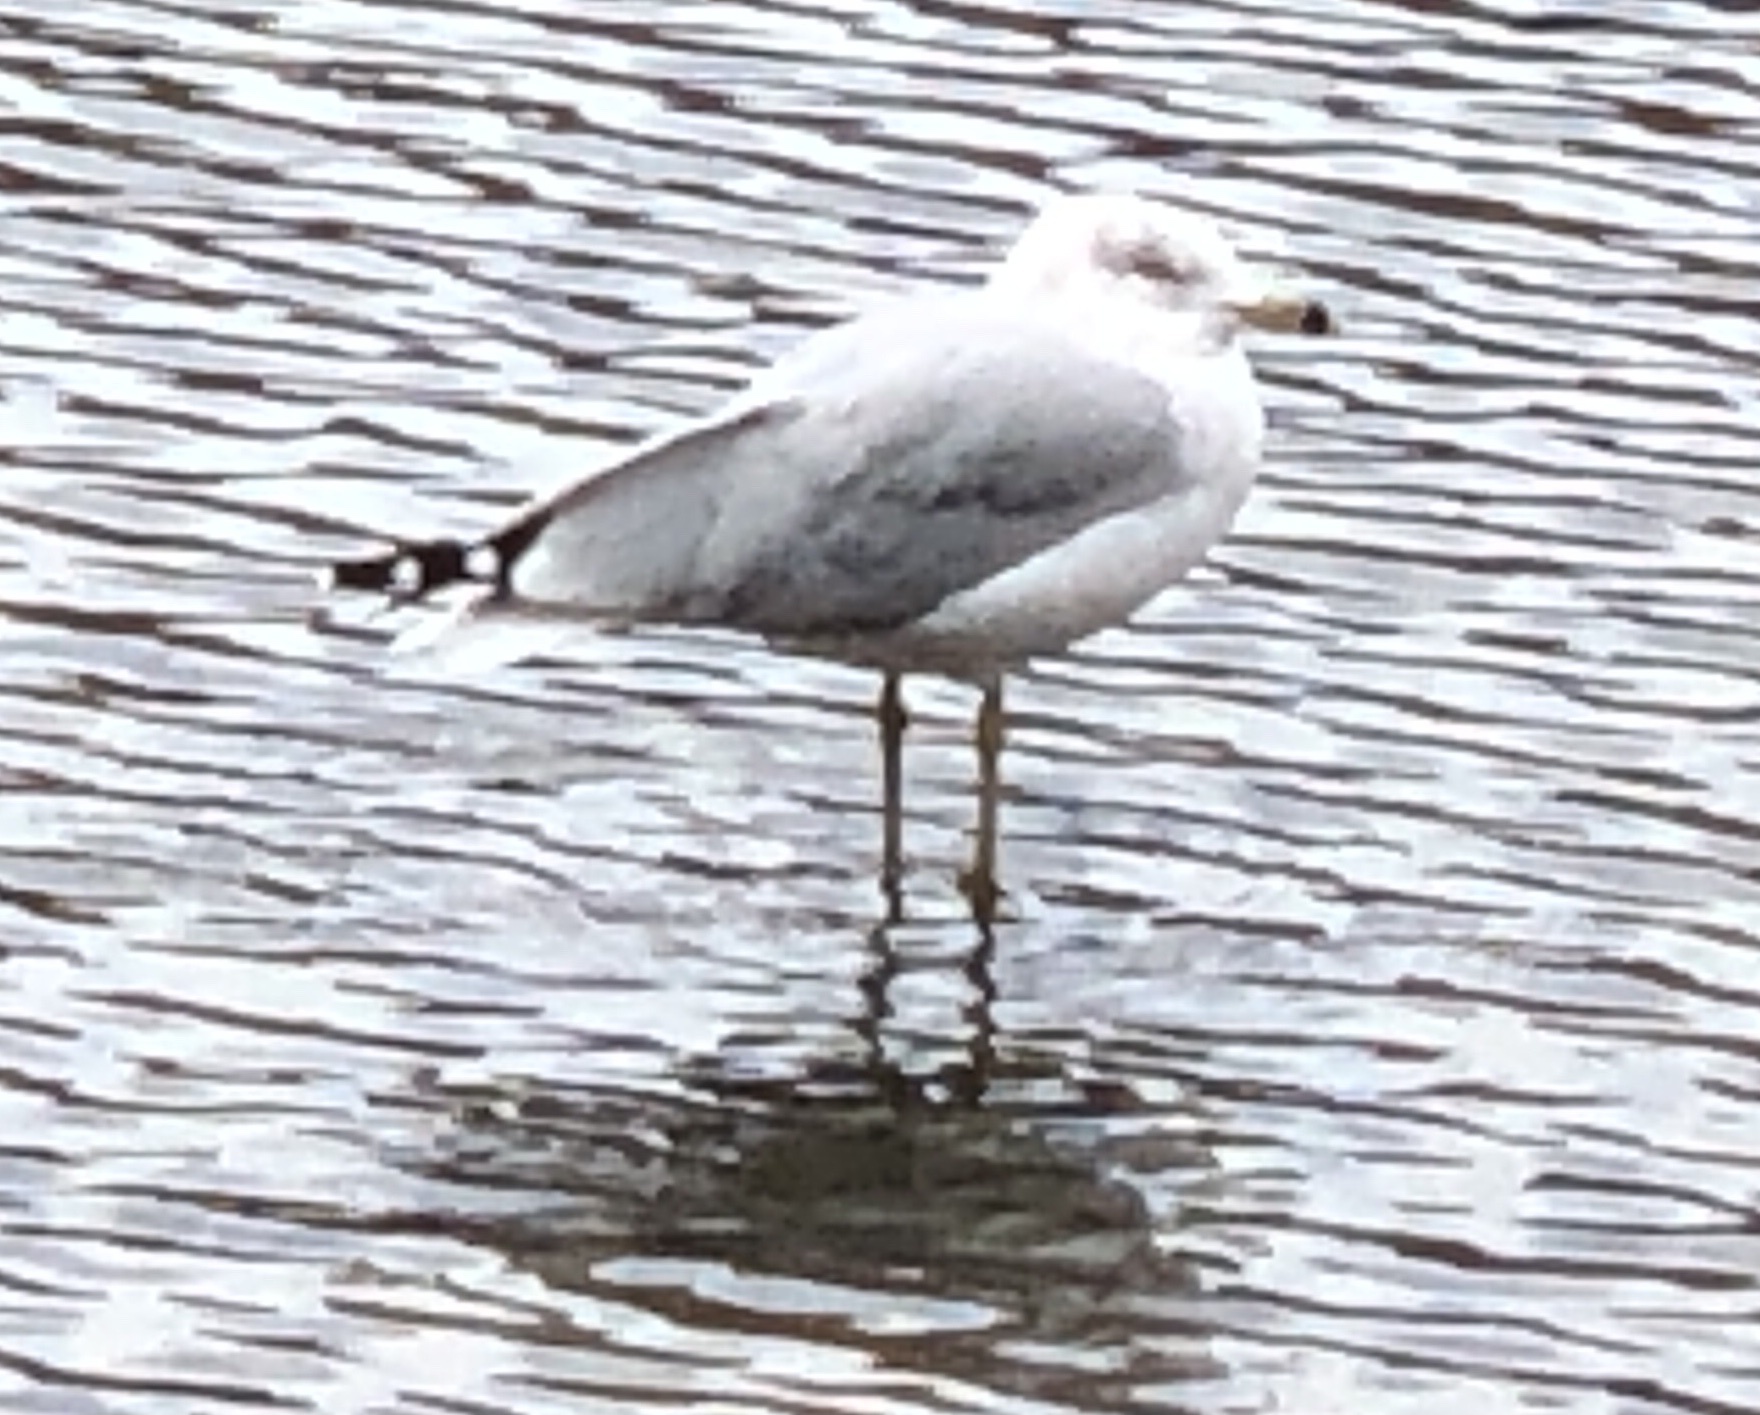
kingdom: Animalia
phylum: Chordata
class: Aves
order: Charadriiformes
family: Laridae
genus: Larus
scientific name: Larus delawarensis
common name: Ring-billed gull
